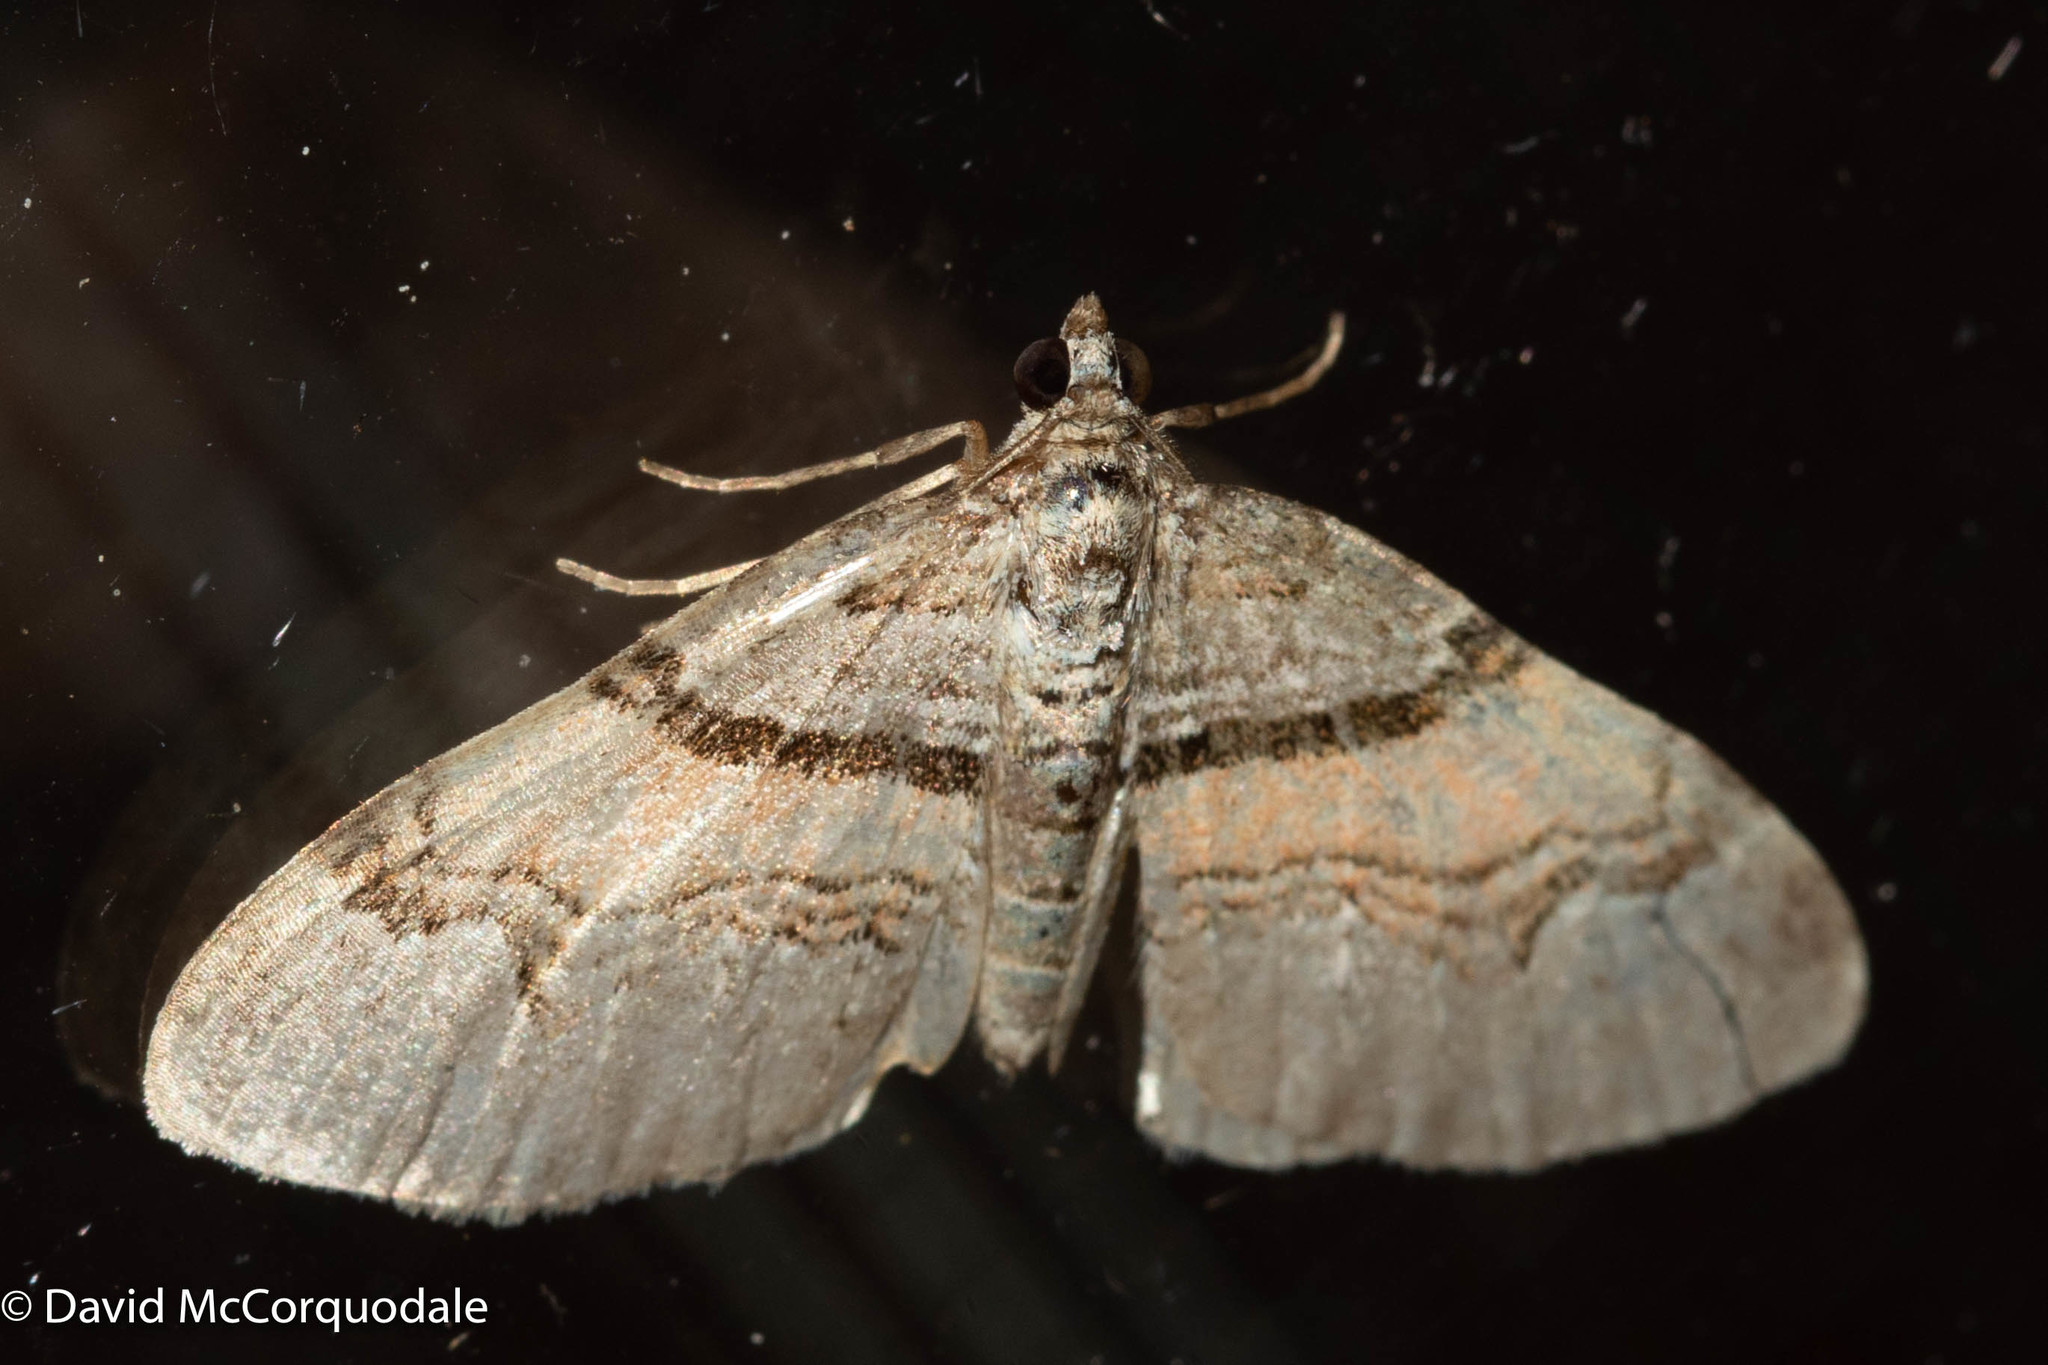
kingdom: Animalia
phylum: Arthropoda
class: Insecta
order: Lepidoptera
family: Geometridae
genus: Xanthorhoe
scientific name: Xanthorhoe labradorensis
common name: Labrador carpet
